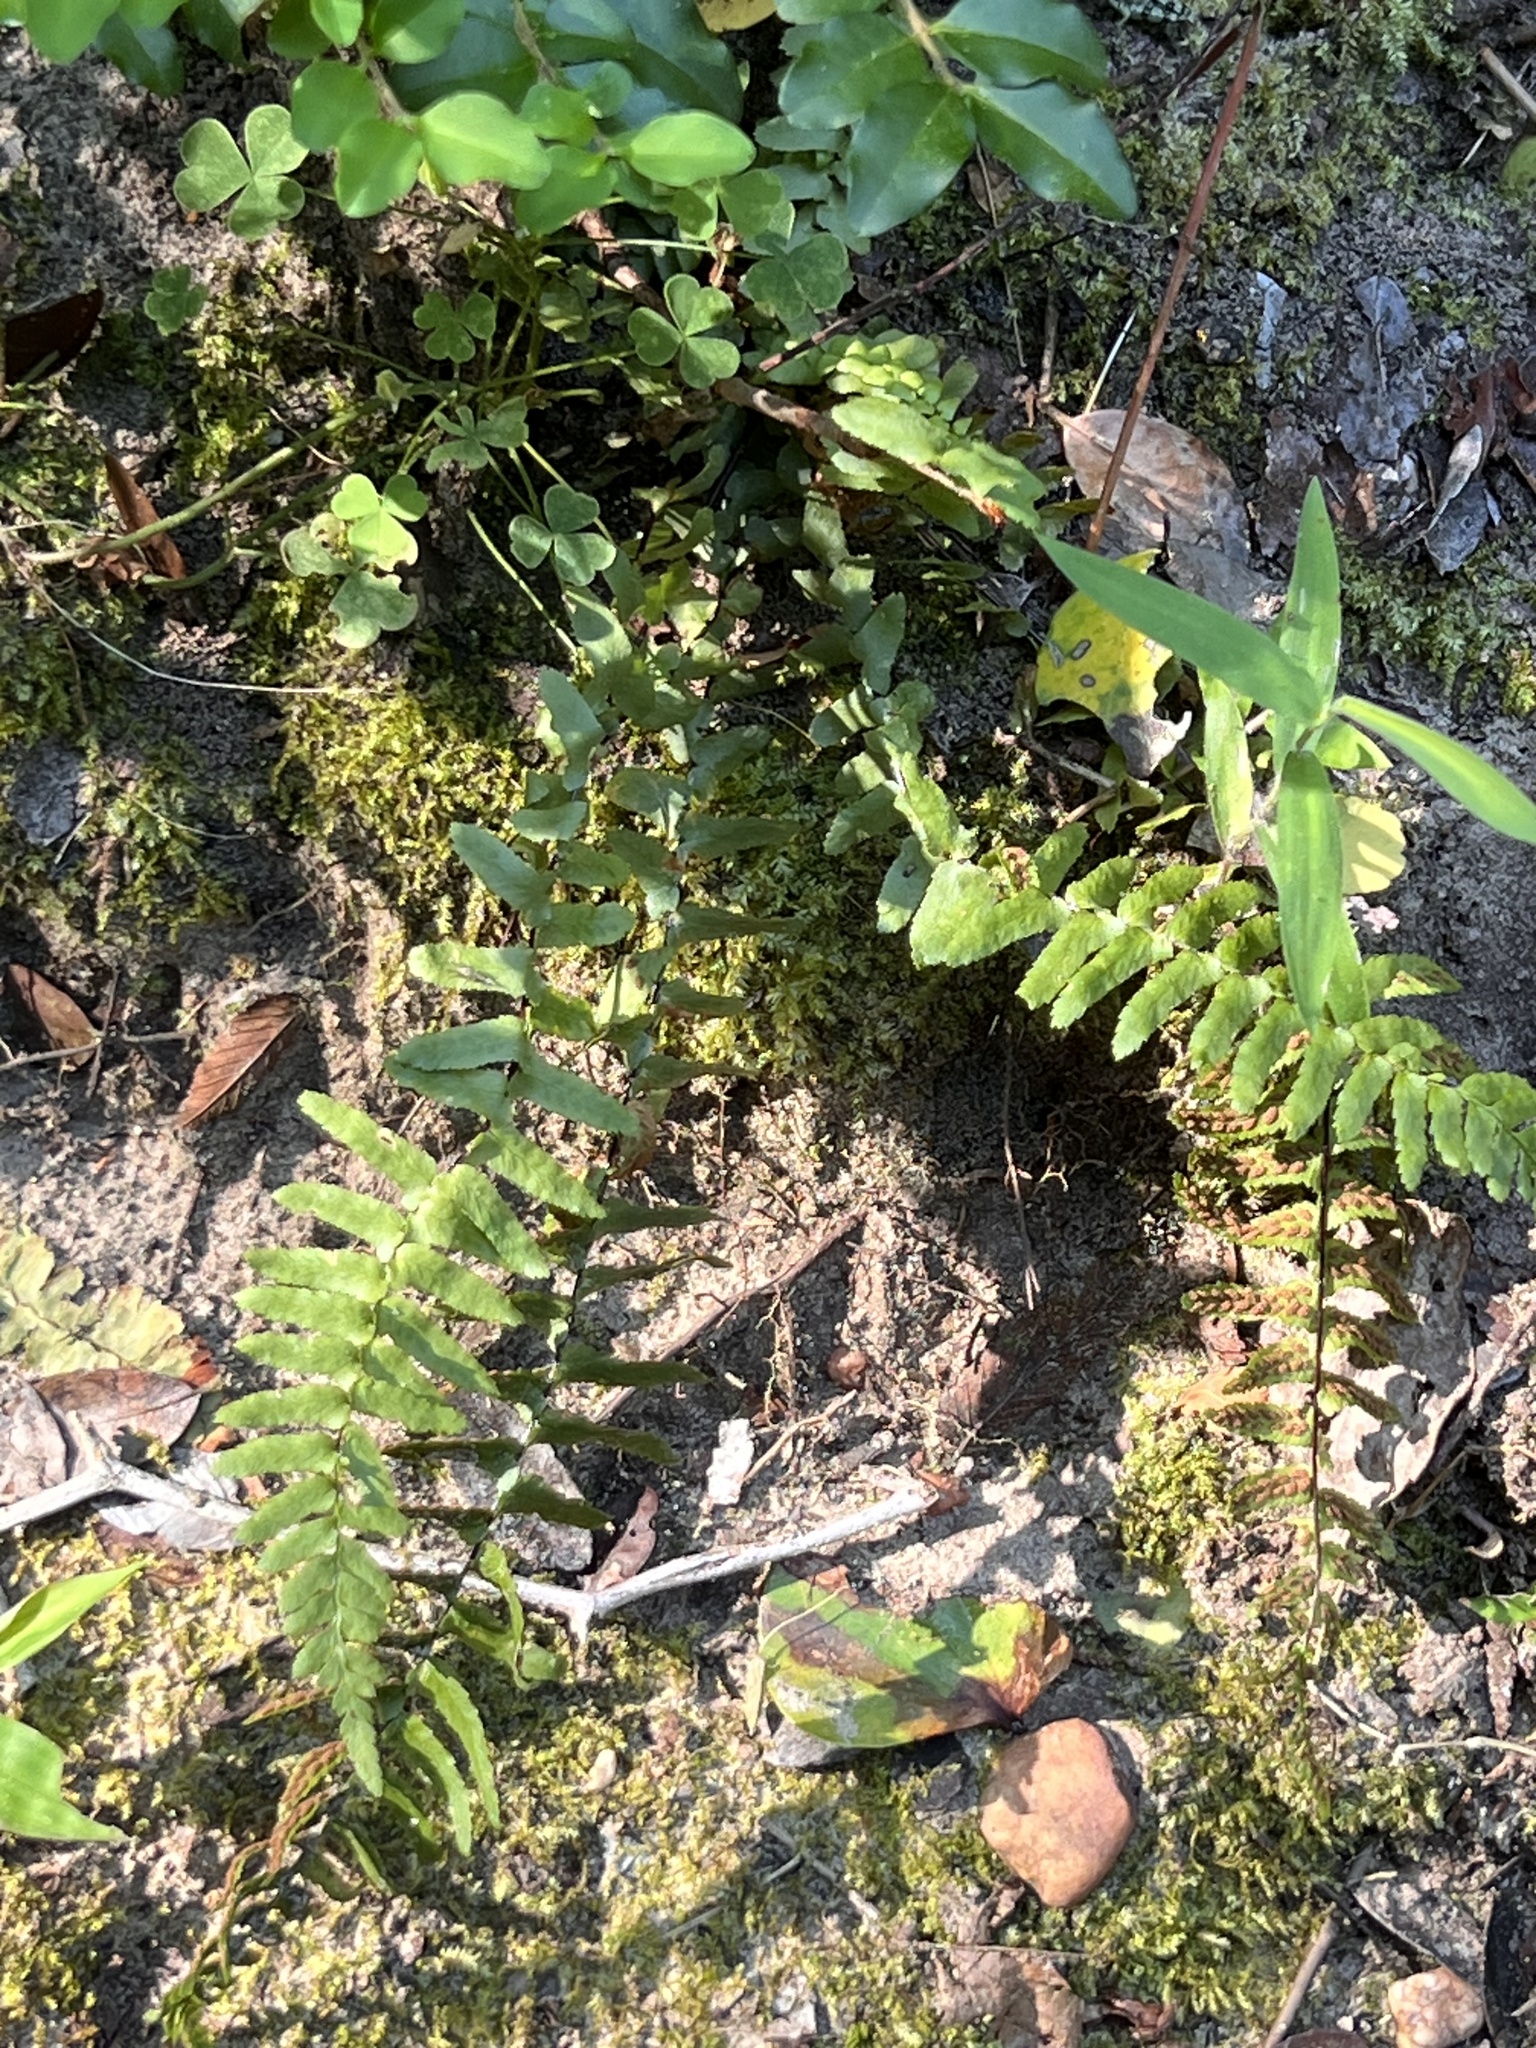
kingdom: Plantae
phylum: Tracheophyta
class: Polypodiopsida
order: Polypodiales
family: Aspleniaceae
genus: Asplenium
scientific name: Asplenium platyneuron
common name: Ebony spleenwort
